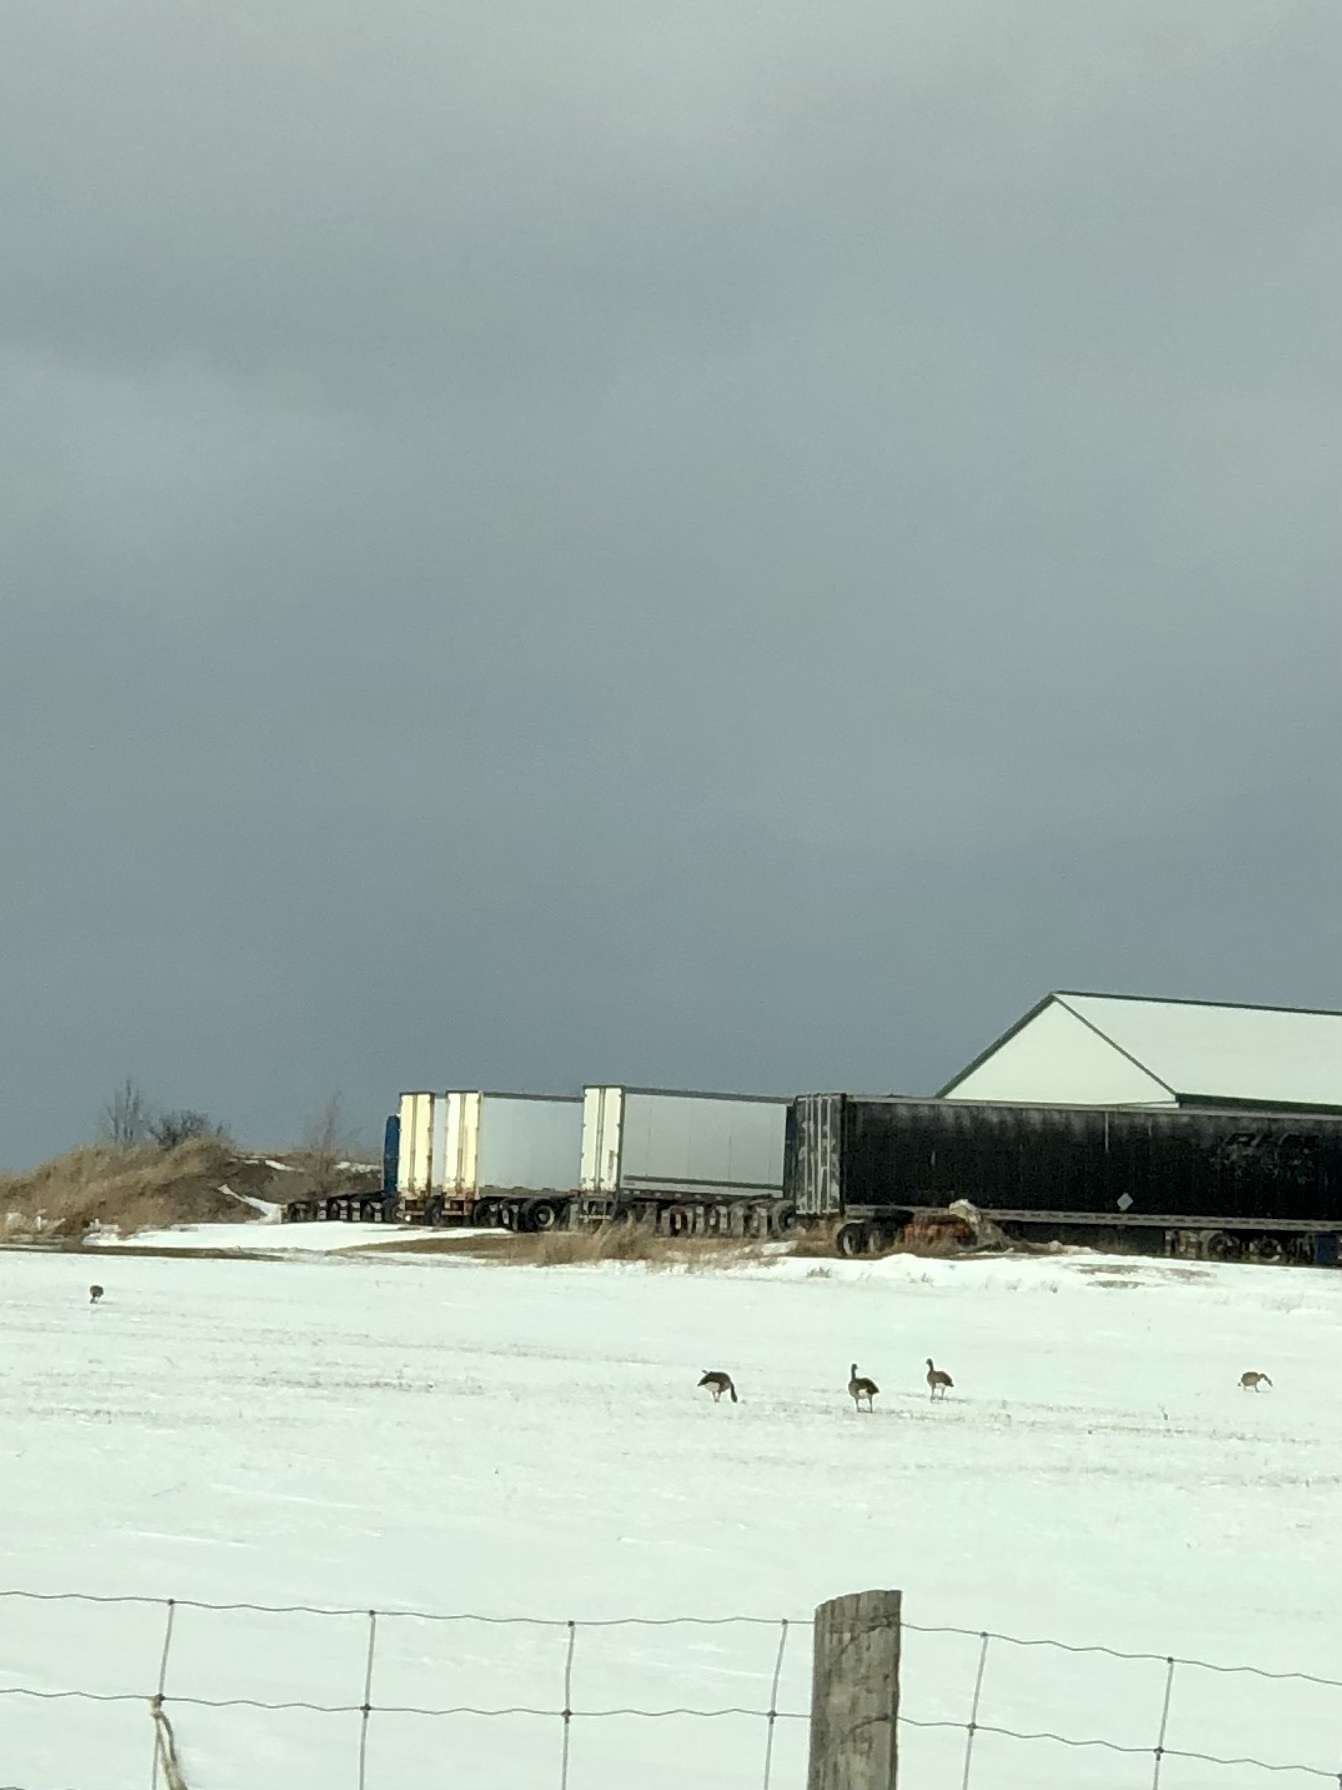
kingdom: Animalia
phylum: Chordata
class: Aves
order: Anseriformes
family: Anatidae
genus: Branta
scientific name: Branta canadensis
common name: Canada goose
